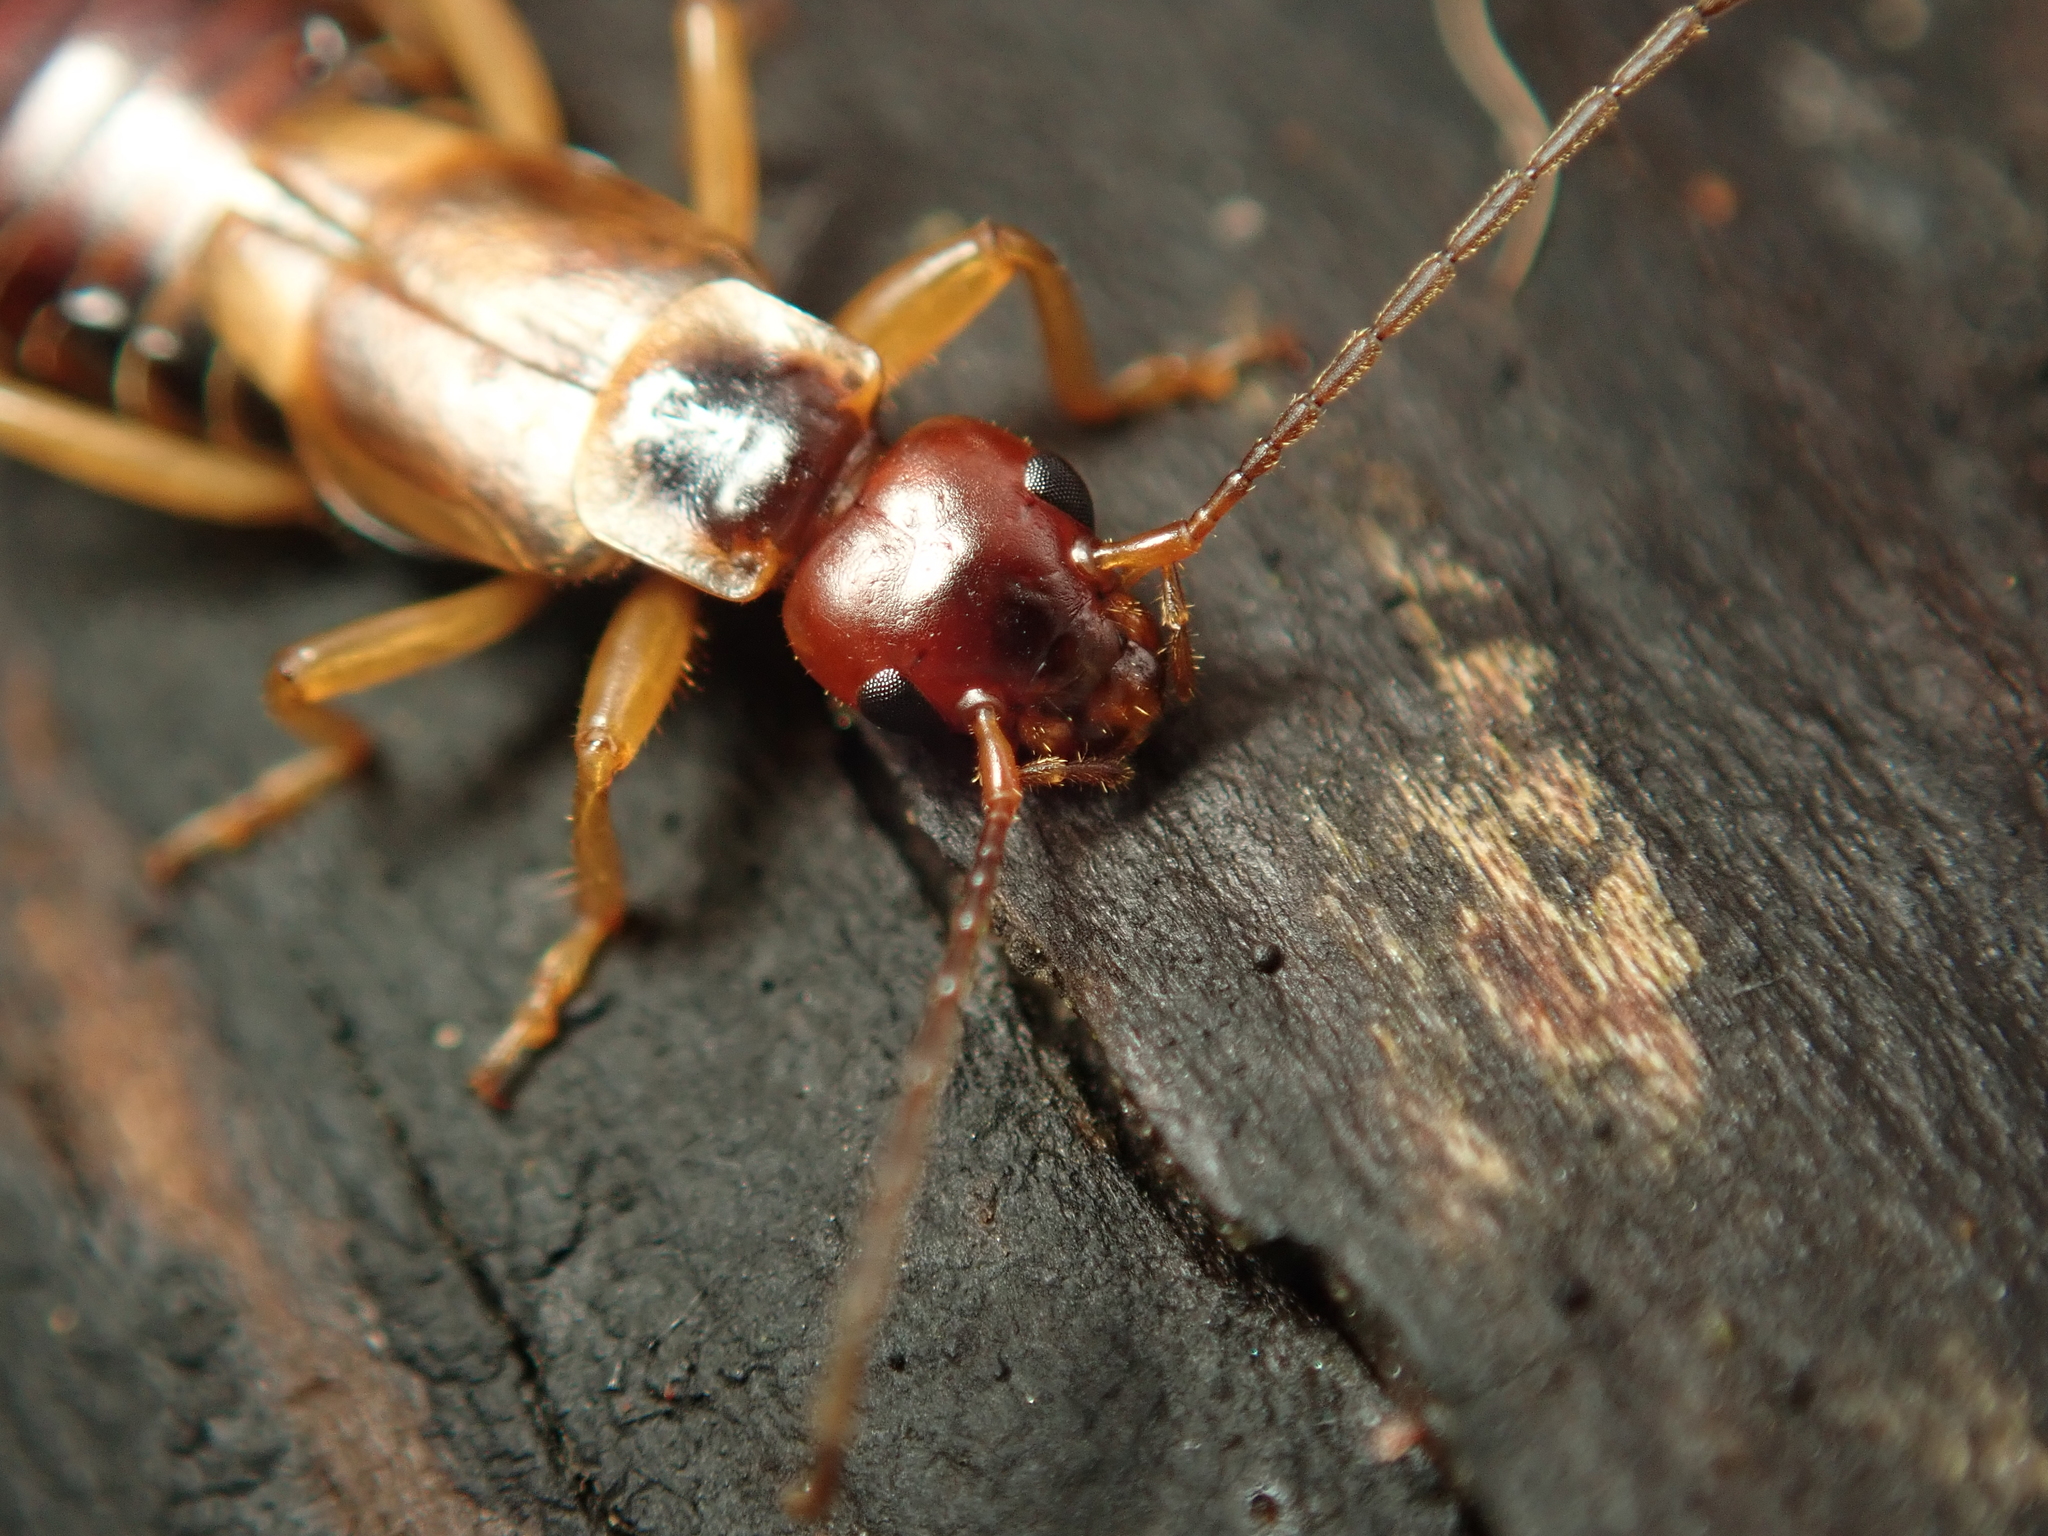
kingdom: Animalia
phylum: Arthropoda
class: Insecta
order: Dermaptera
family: Forficulidae
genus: Forficula
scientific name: Forficula
